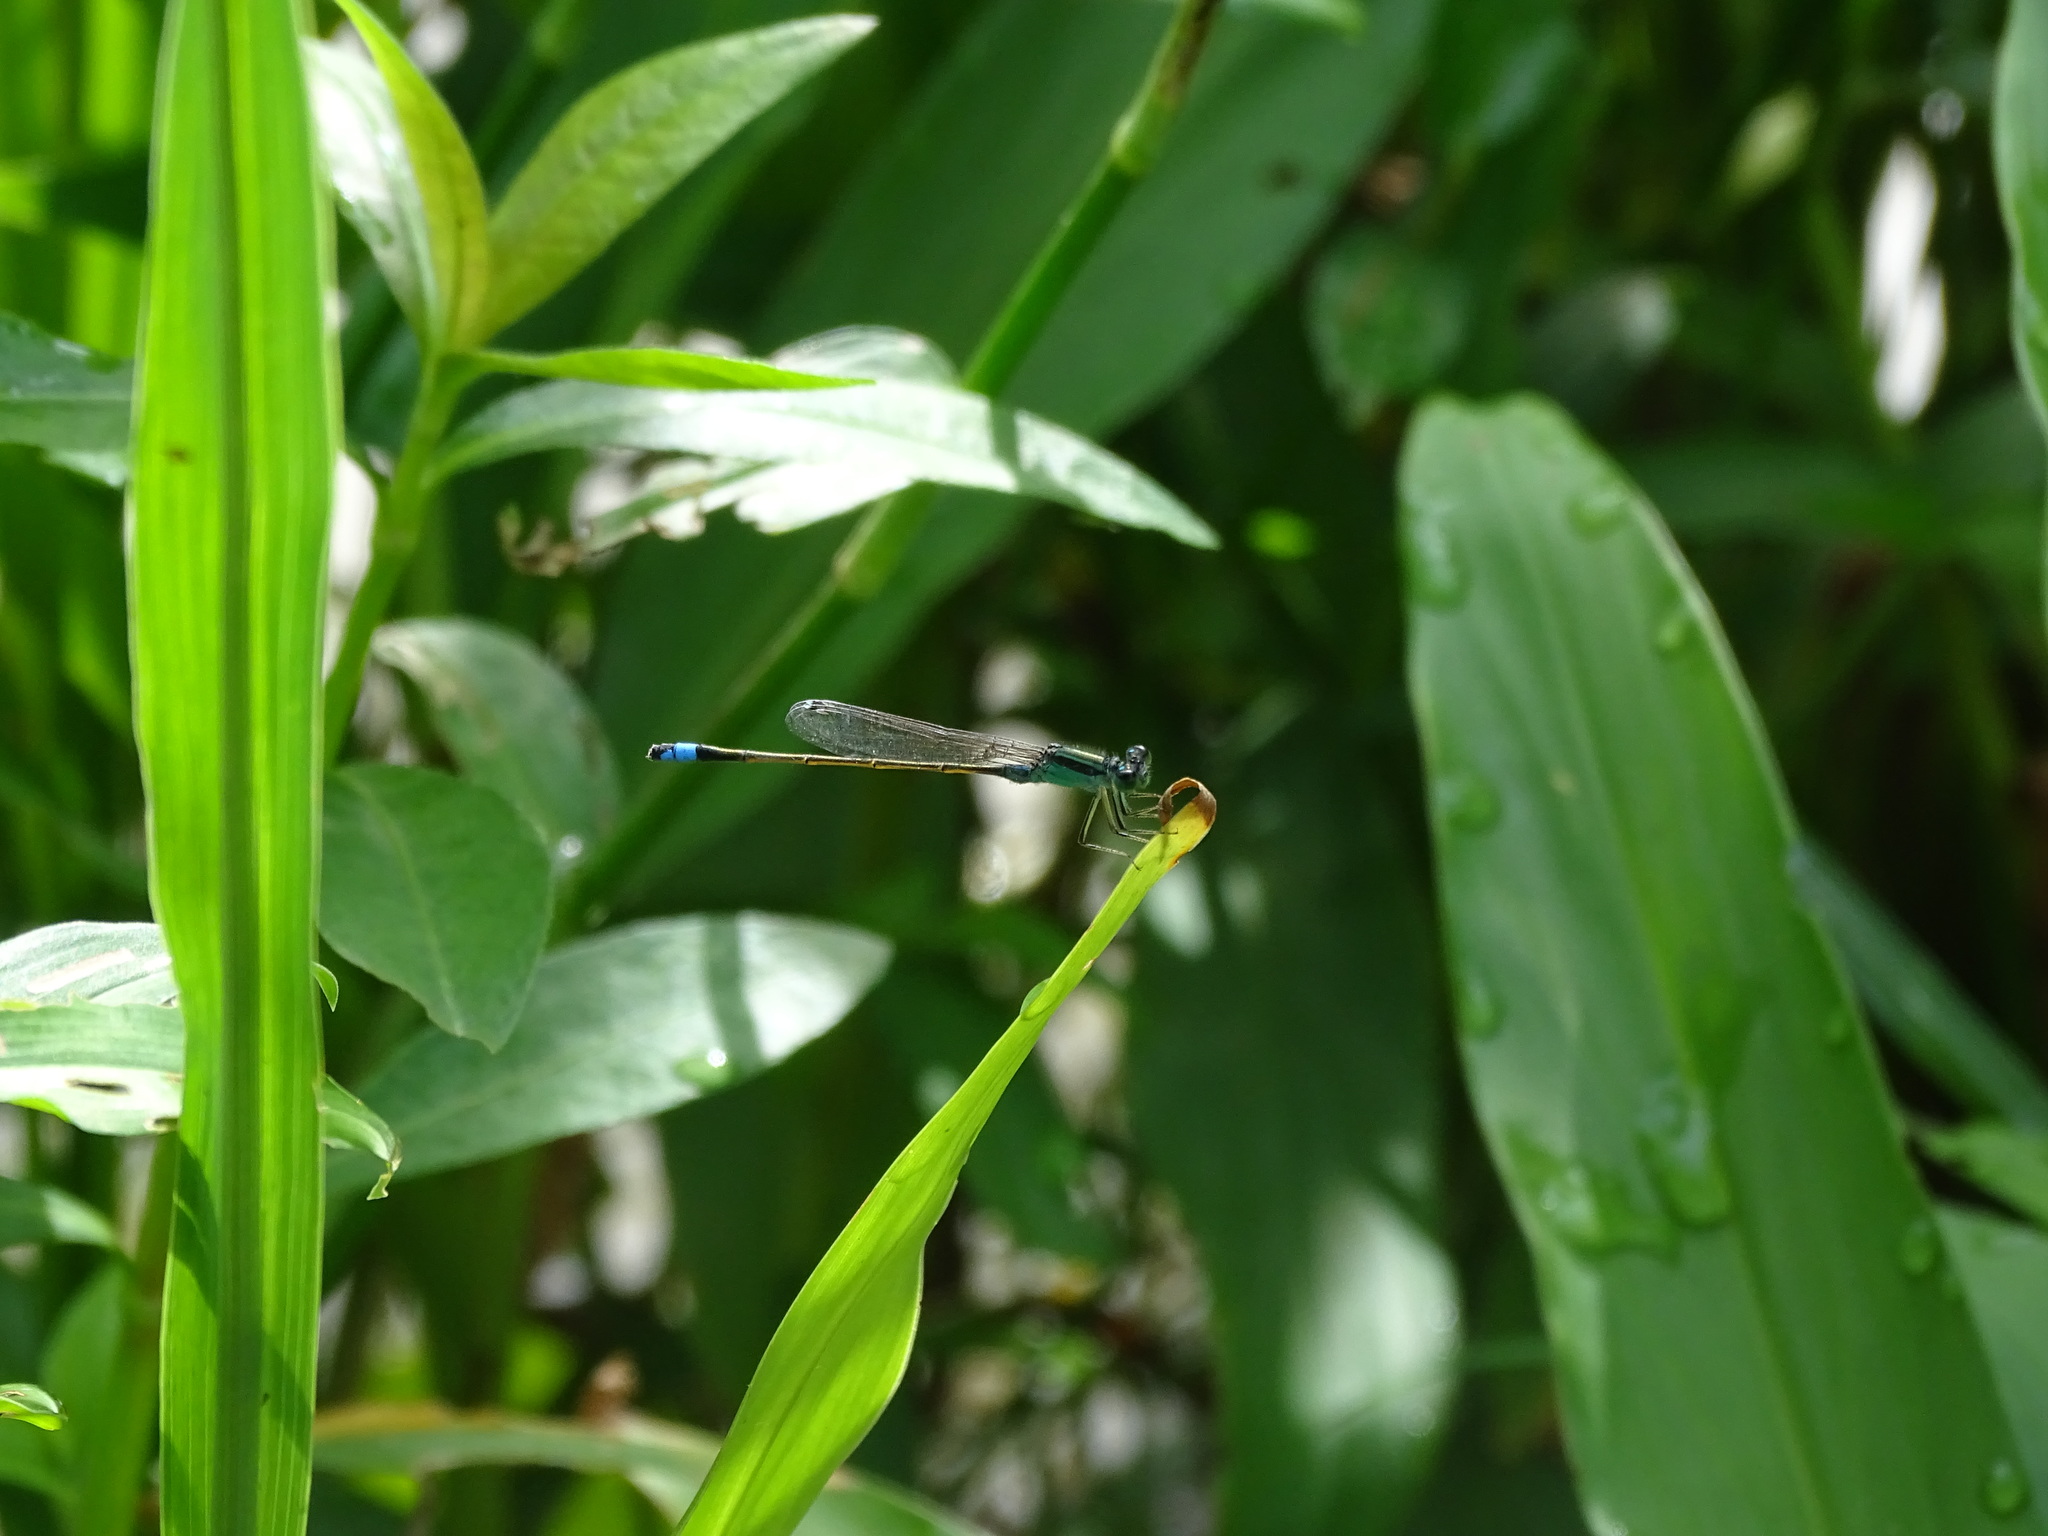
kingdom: Animalia
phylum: Arthropoda
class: Insecta
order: Odonata
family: Coenagrionidae
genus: Ischnura
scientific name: Ischnura senegalensis
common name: Tropical bluetail
